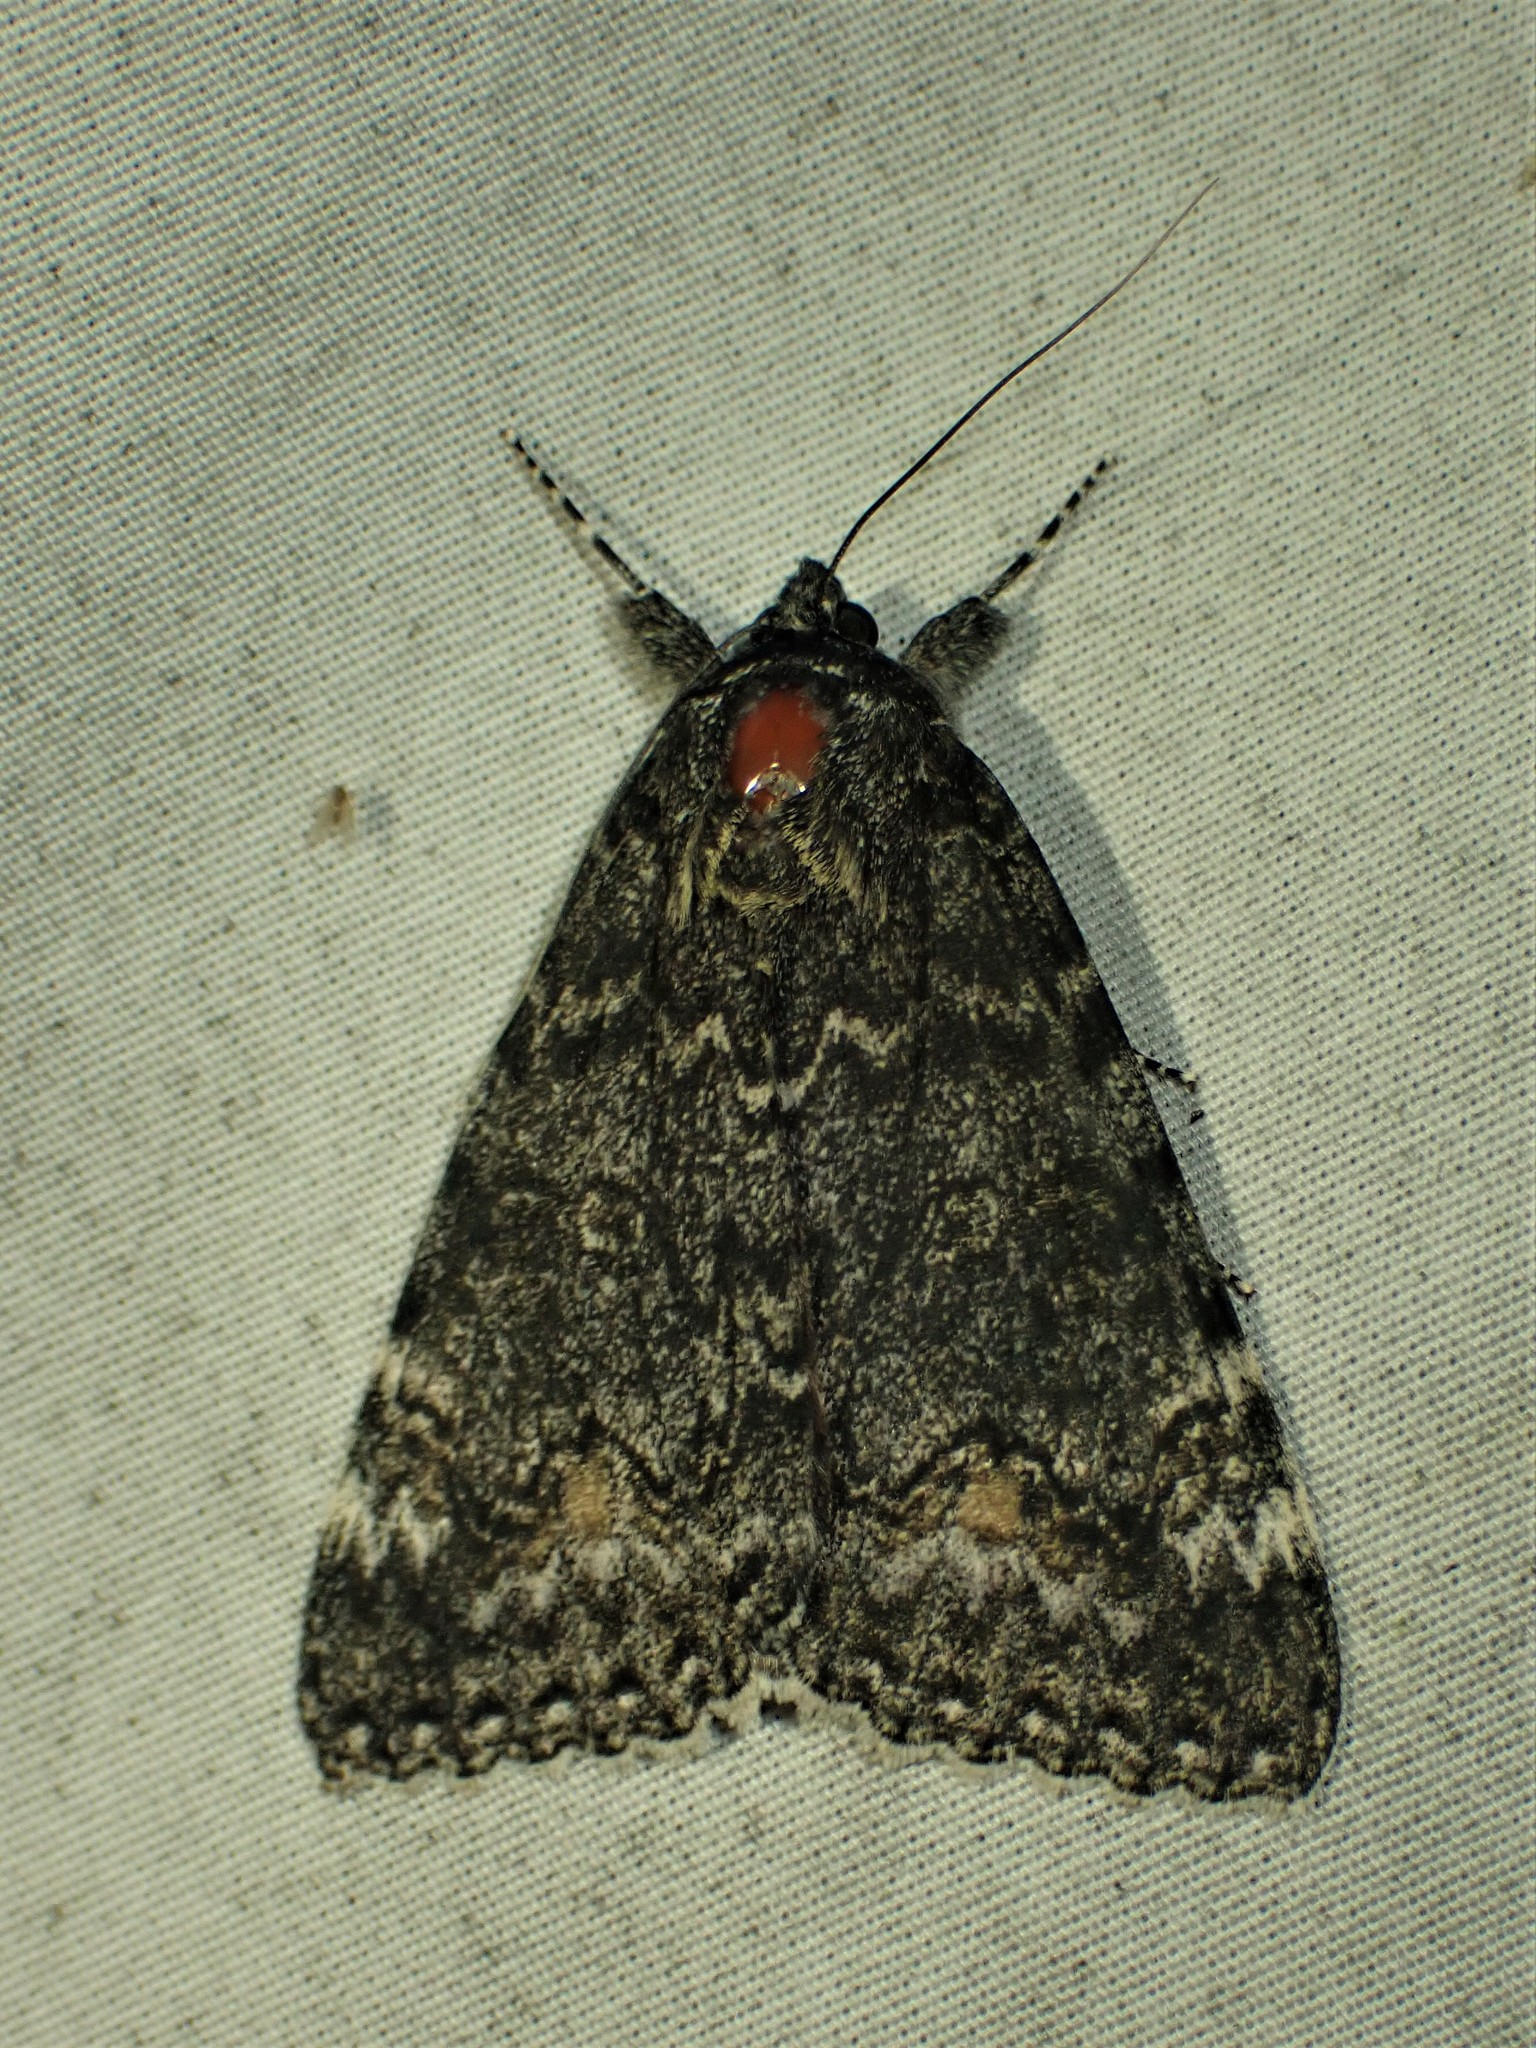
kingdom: Animalia
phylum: Arthropoda
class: Insecta
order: Lepidoptera
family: Erebidae
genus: Catocala
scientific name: Catocala briseis
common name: Briseis underwing
